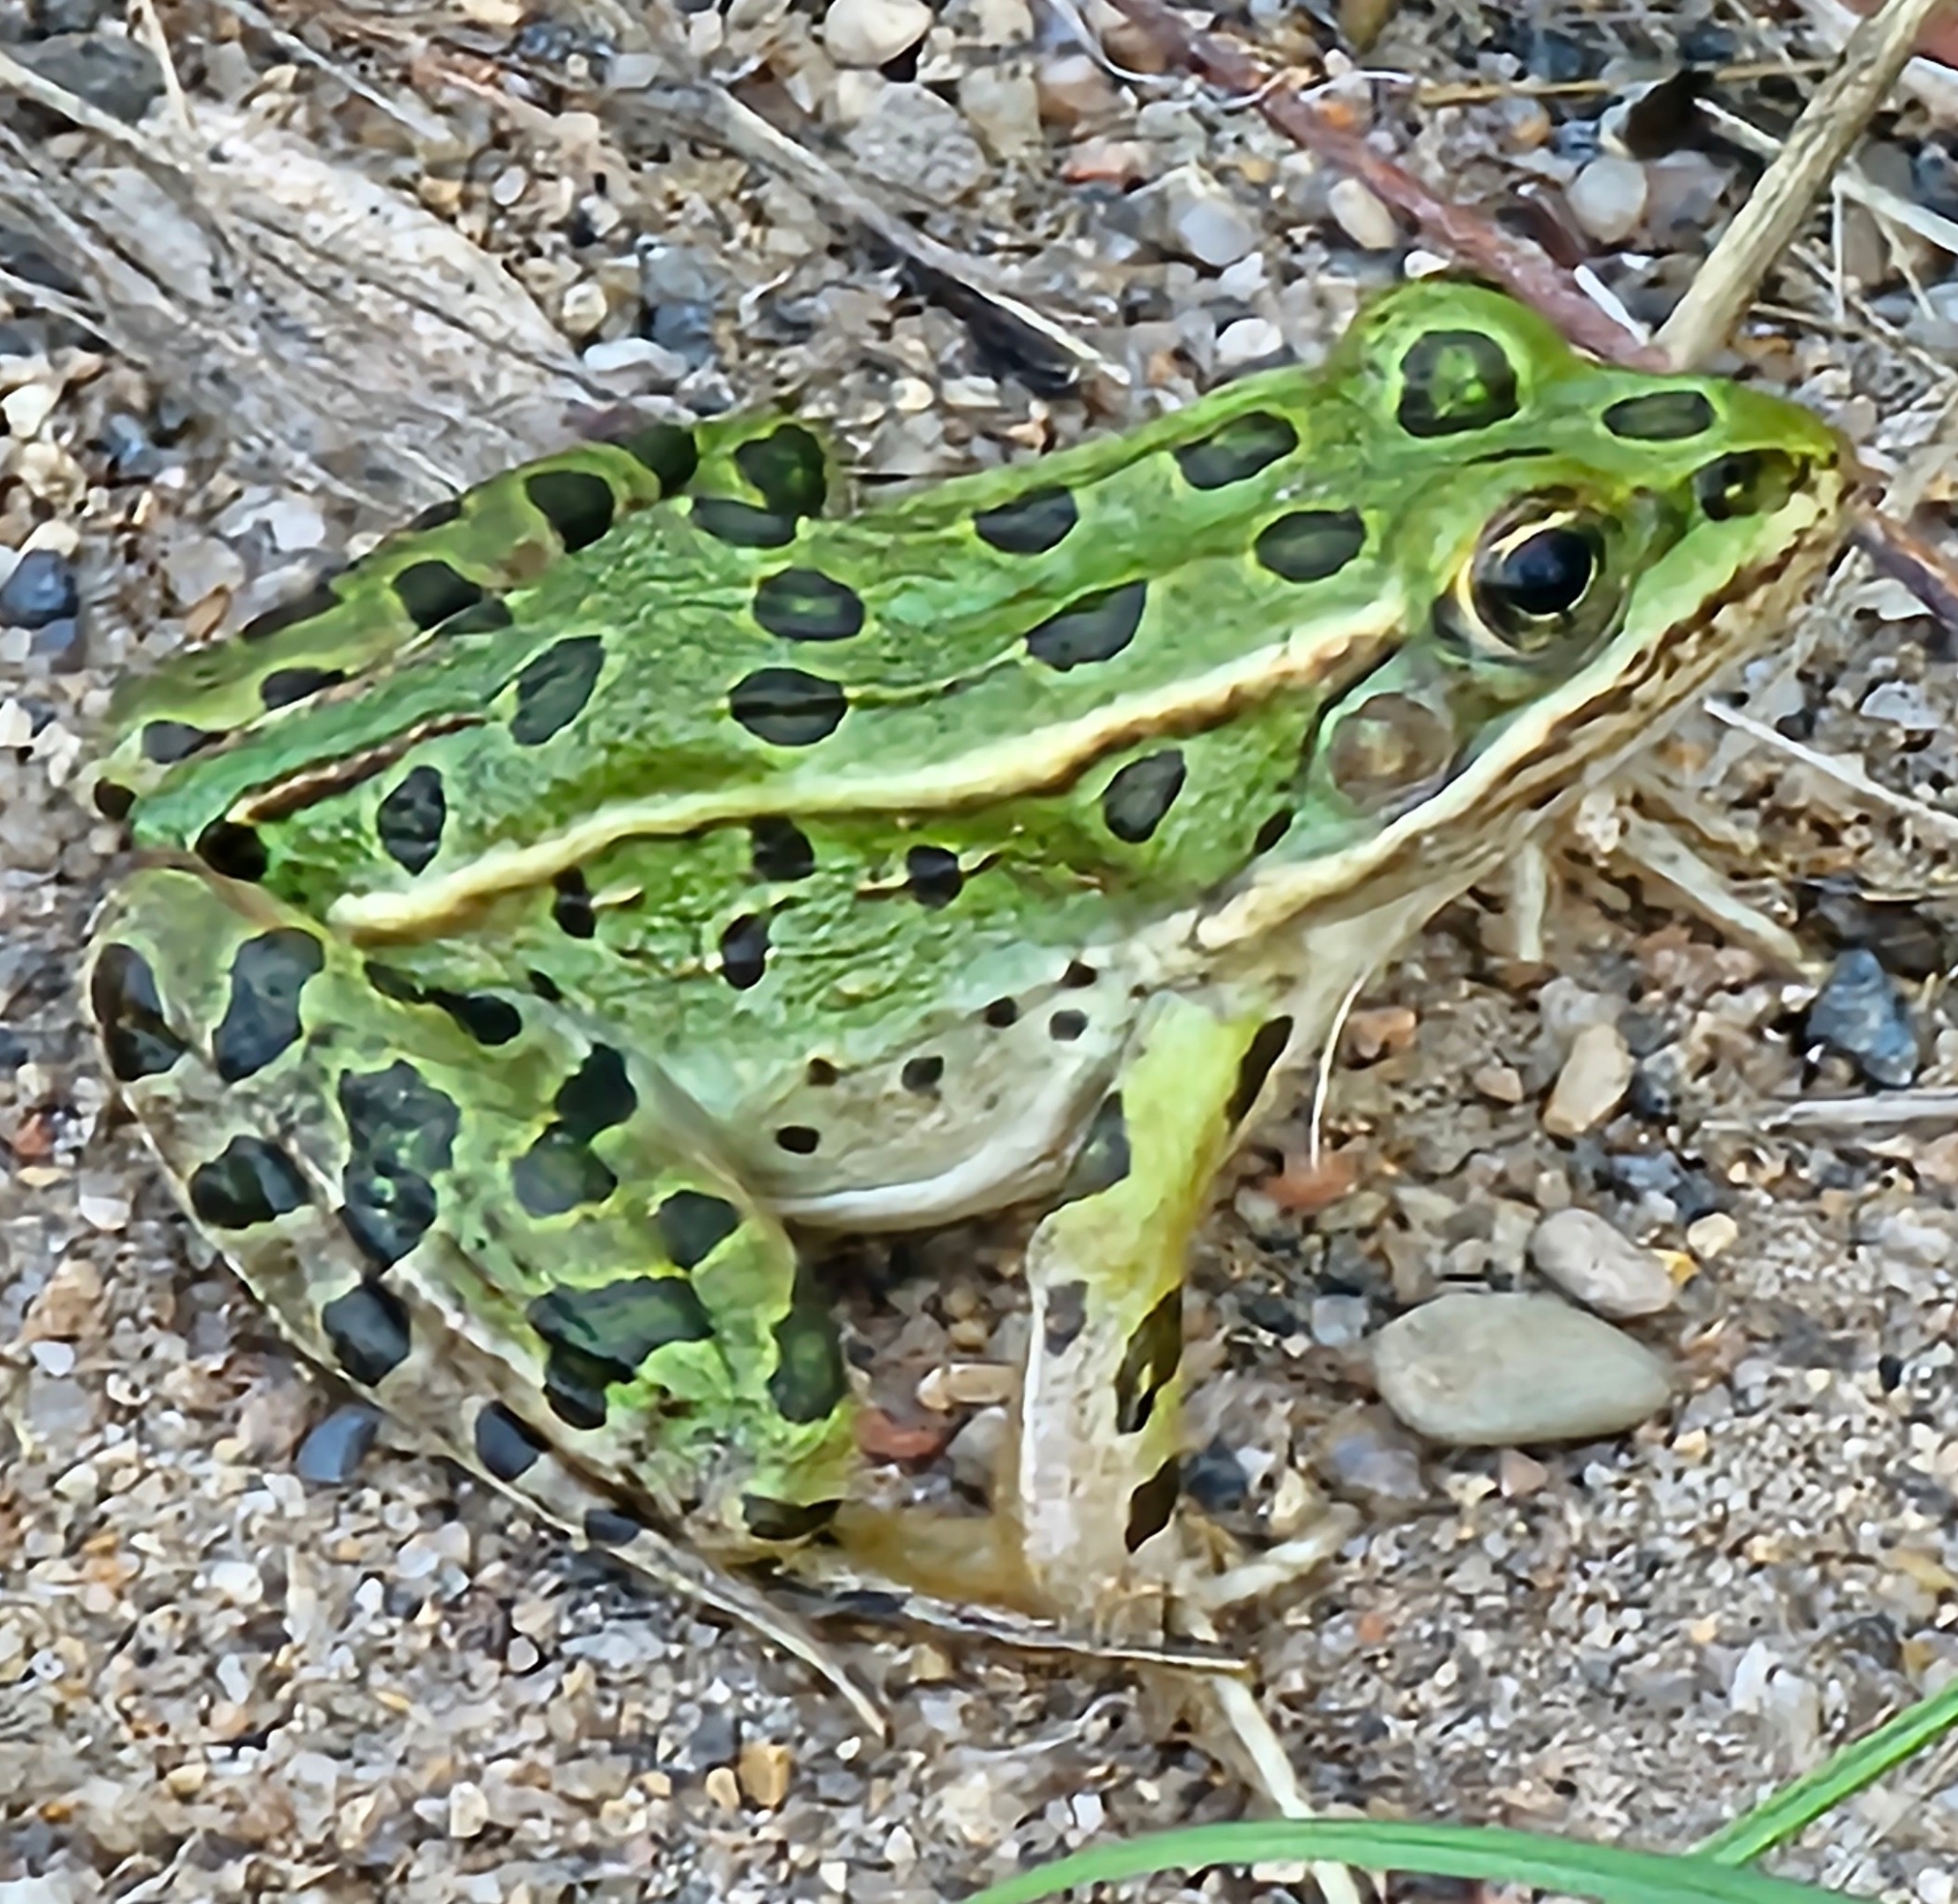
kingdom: Animalia
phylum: Chordata
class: Amphibia
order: Anura
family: Ranidae
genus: Lithobates
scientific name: Lithobates pipiens
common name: Northern leopard frog
